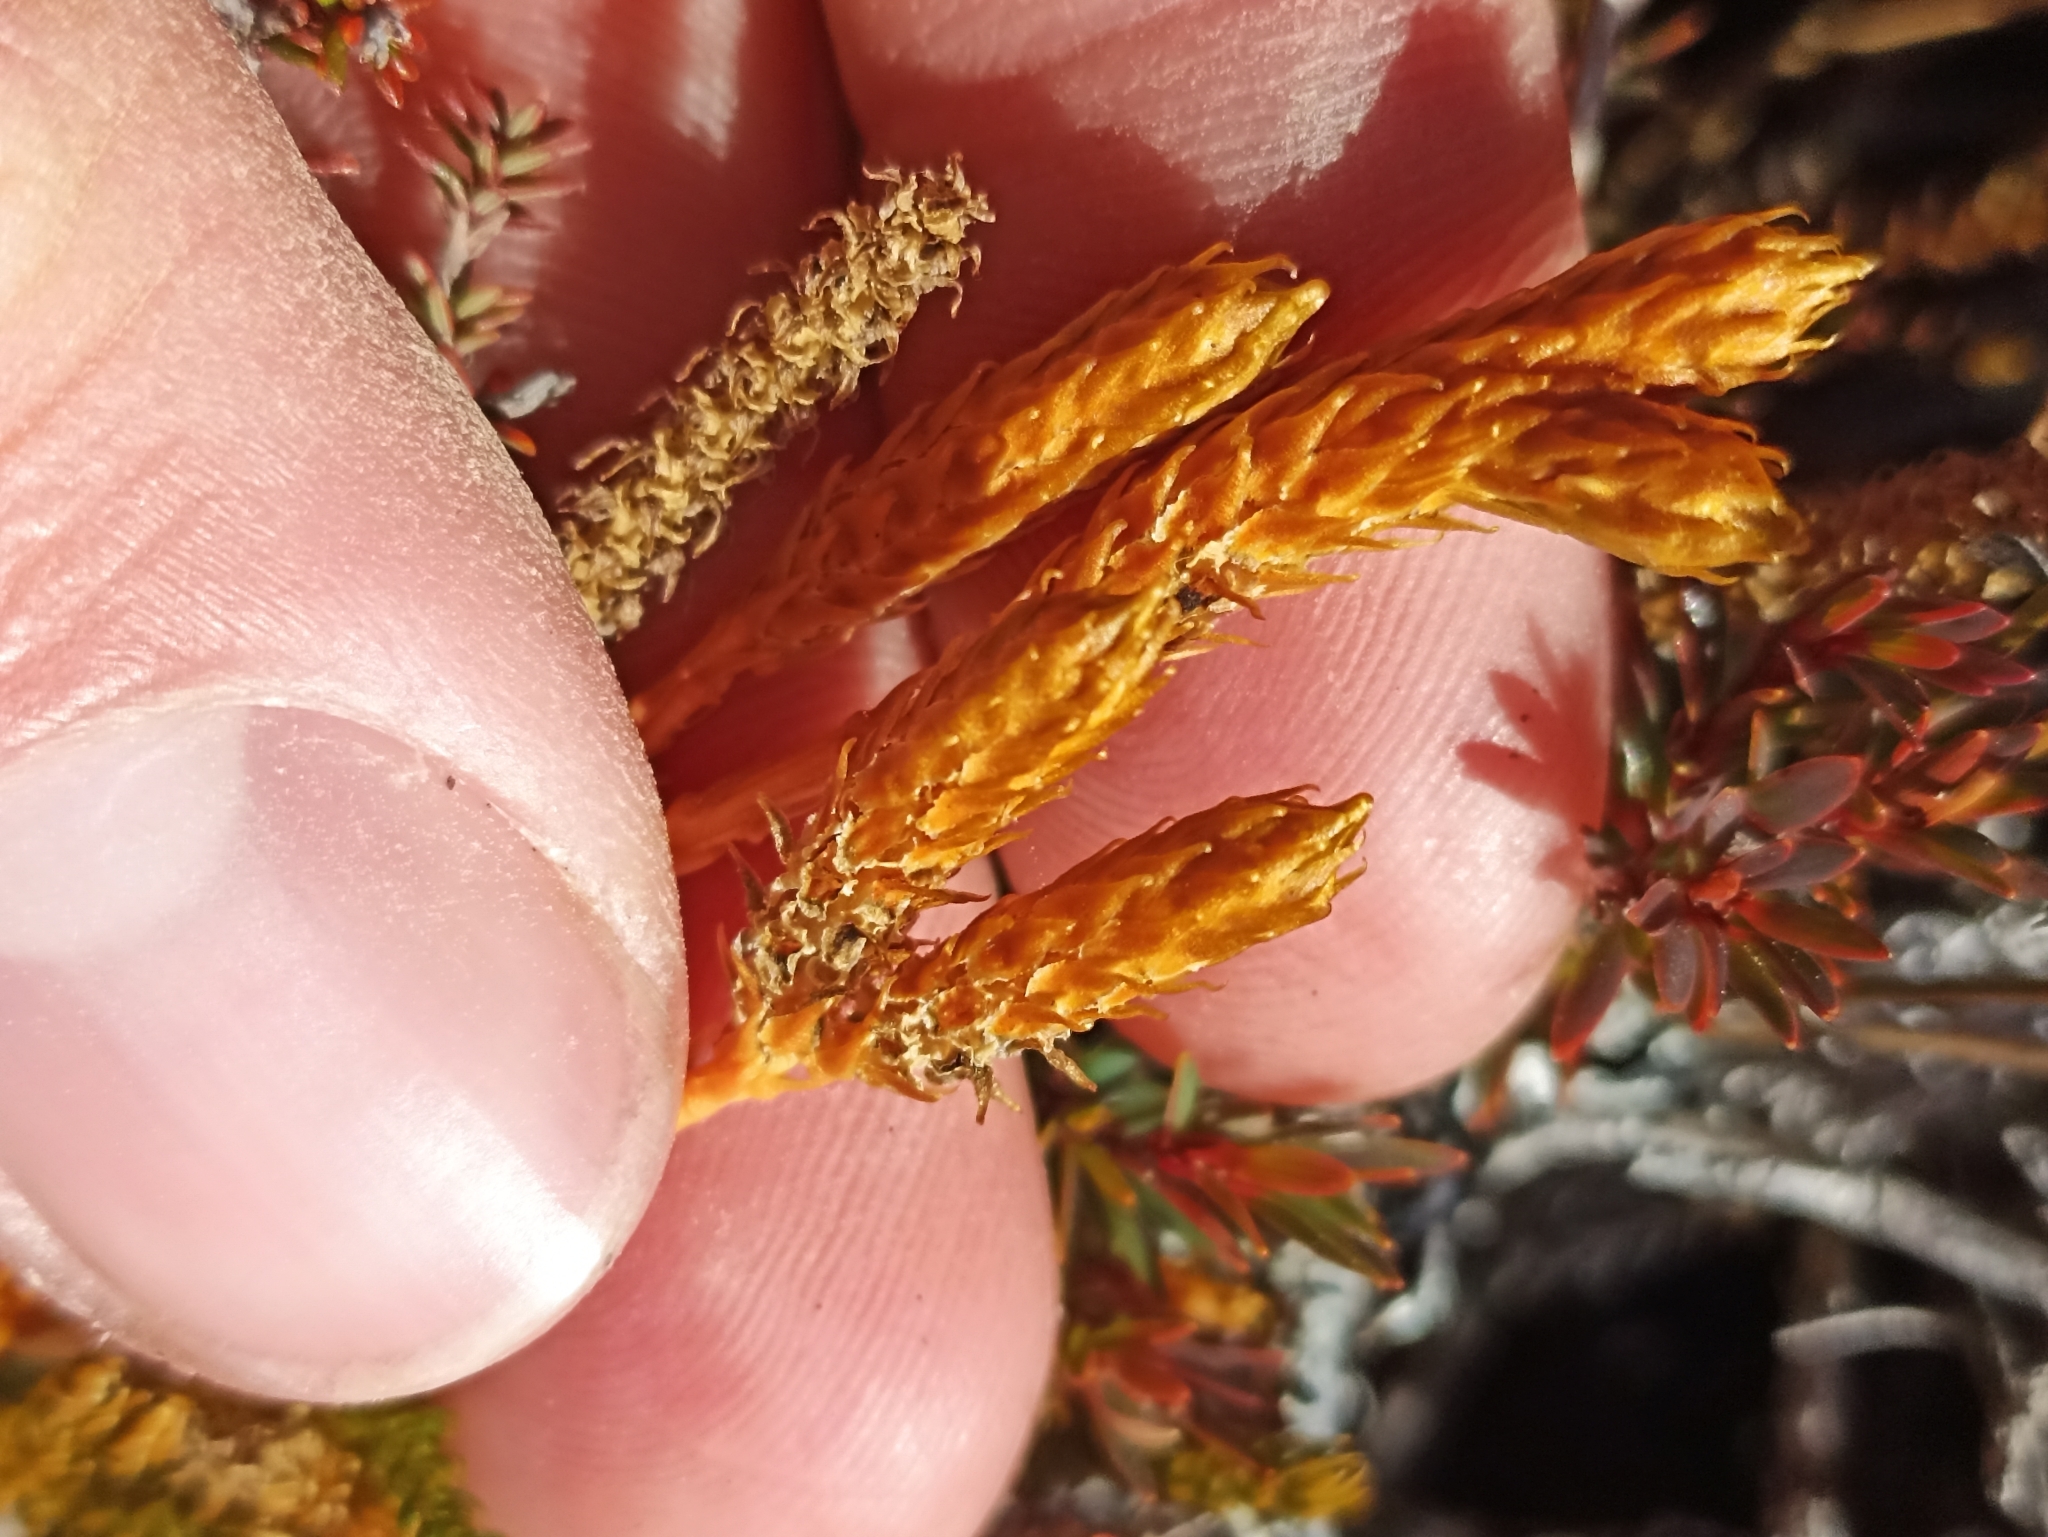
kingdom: Plantae
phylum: Tracheophyta
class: Lycopodiopsida
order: Lycopodiales
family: Lycopodiaceae
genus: Austrolycopodium
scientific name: Austrolycopodium fastigiatum
